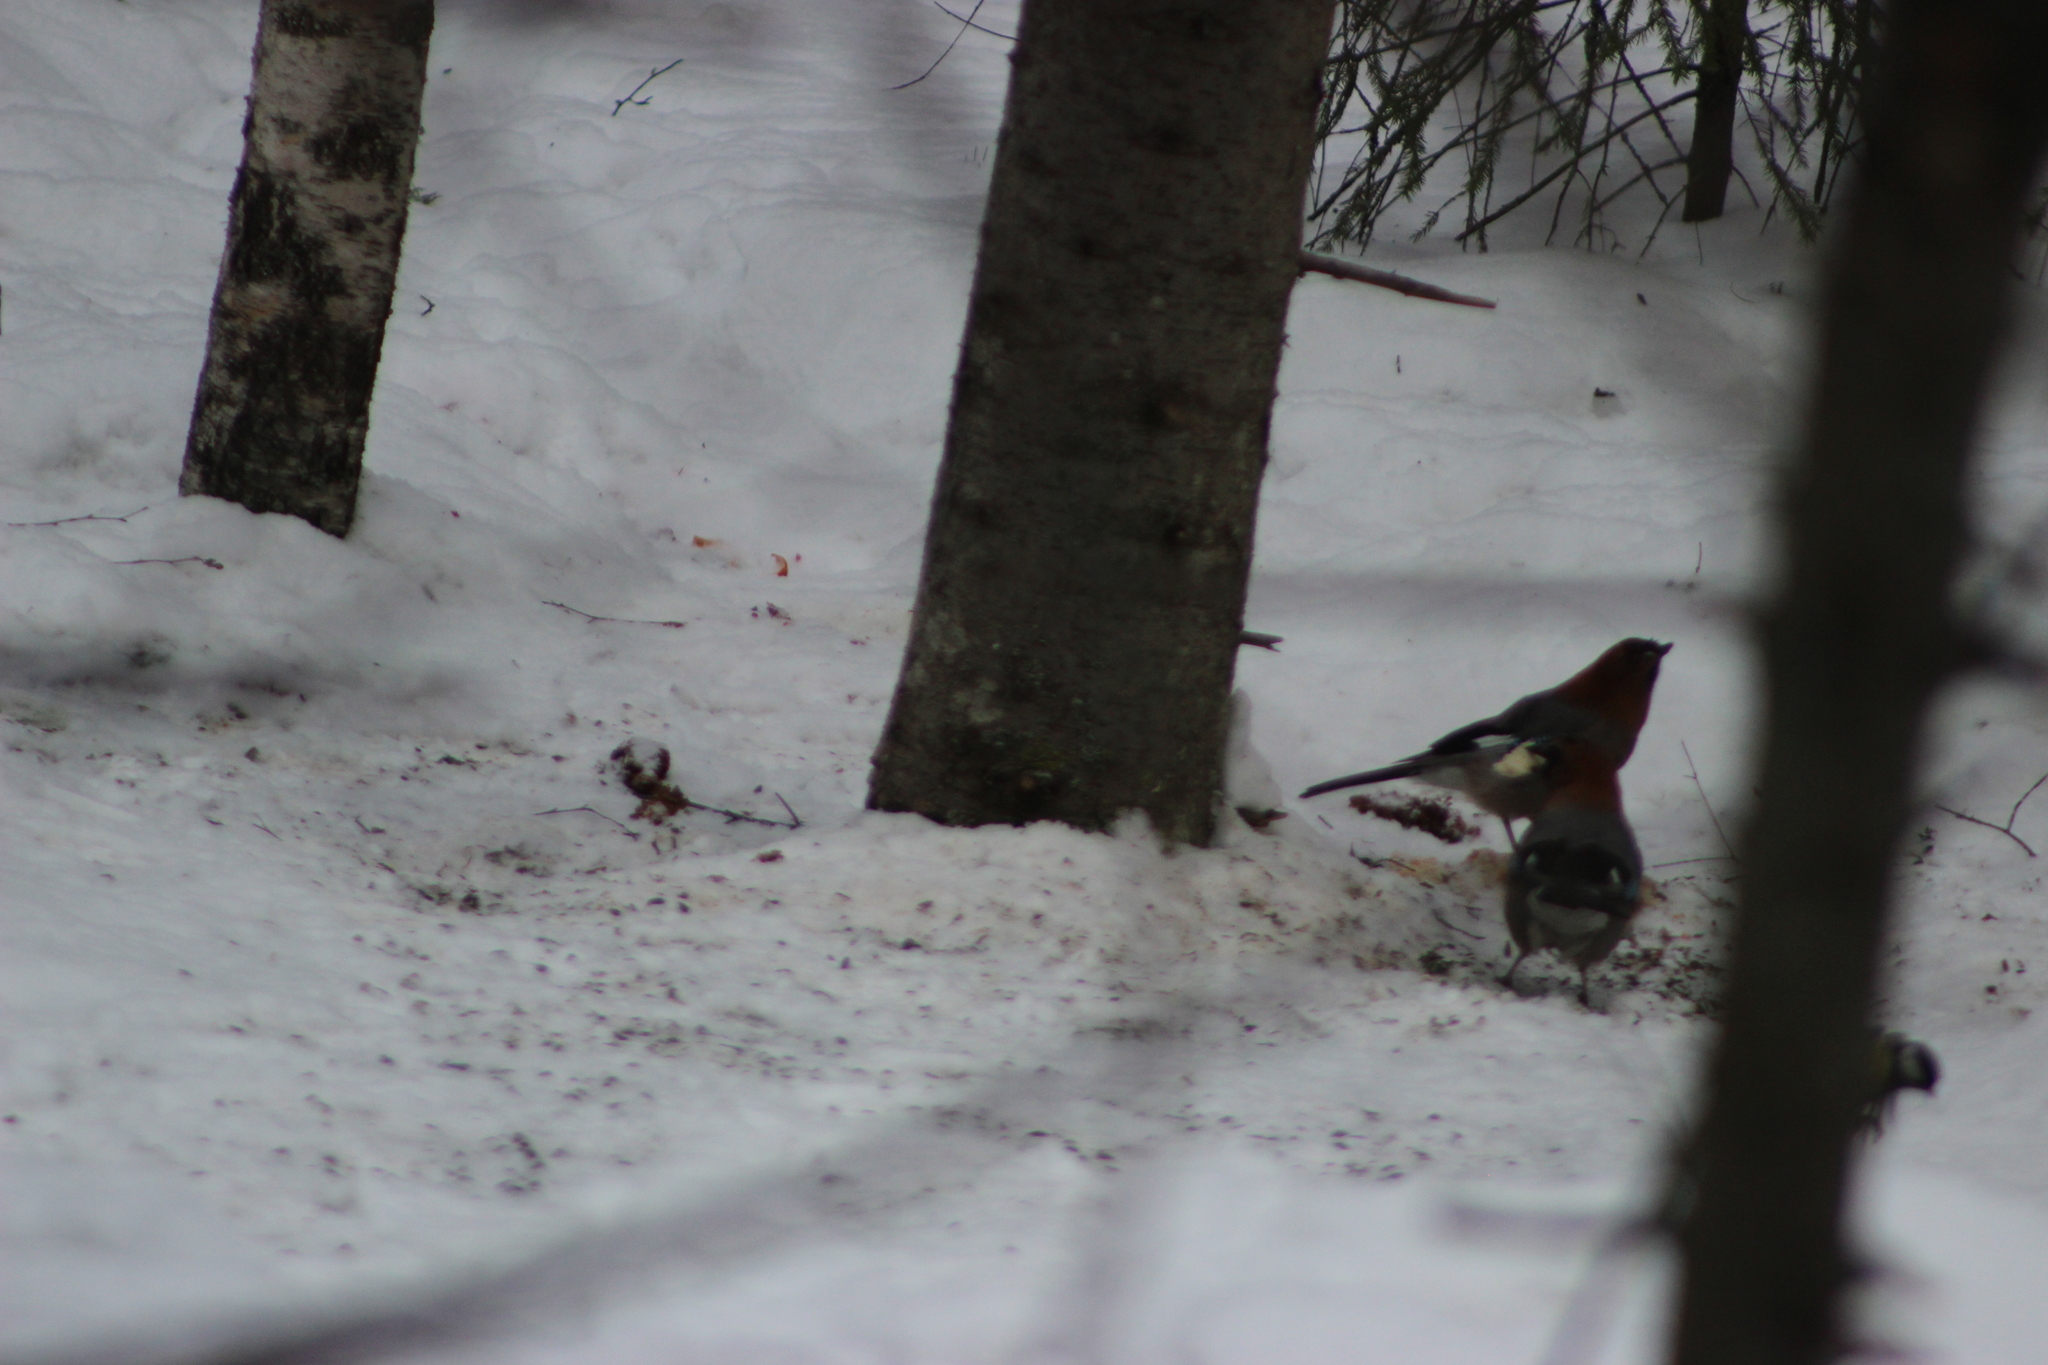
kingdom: Animalia
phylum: Chordata
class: Aves
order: Passeriformes
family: Corvidae
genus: Garrulus
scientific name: Garrulus glandarius
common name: Eurasian jay
